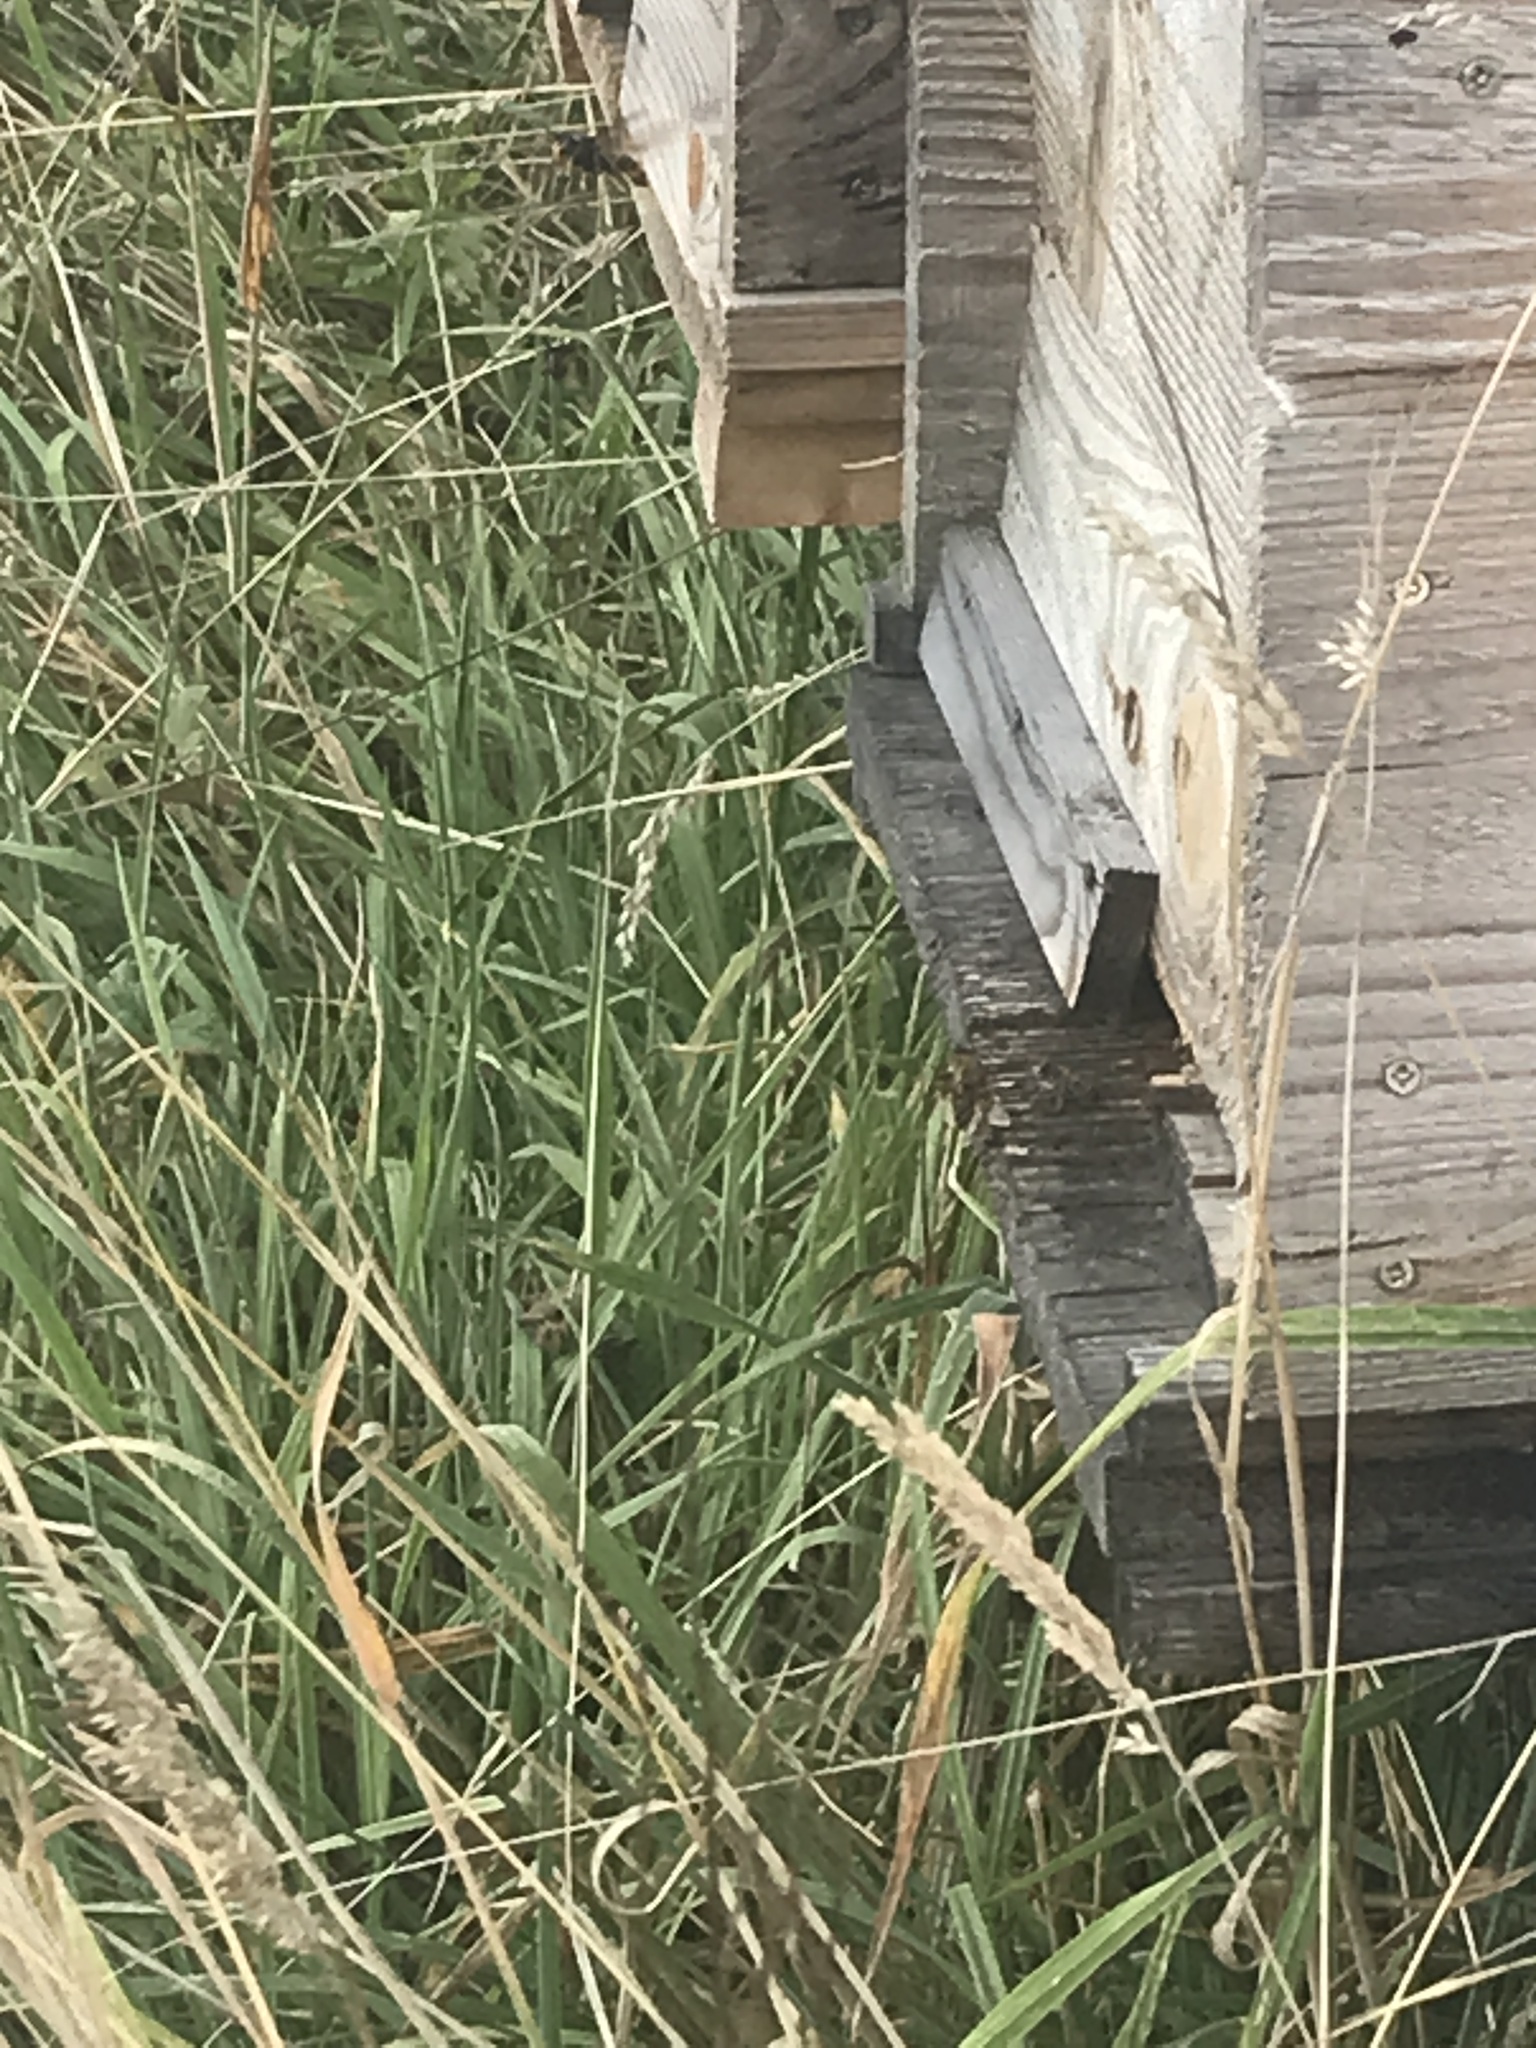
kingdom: Animalia
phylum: Arthropoda
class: Insecta
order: Hymenoptera
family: Vespidae
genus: Vespa
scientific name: Vespa velutina
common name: Asian hornet
